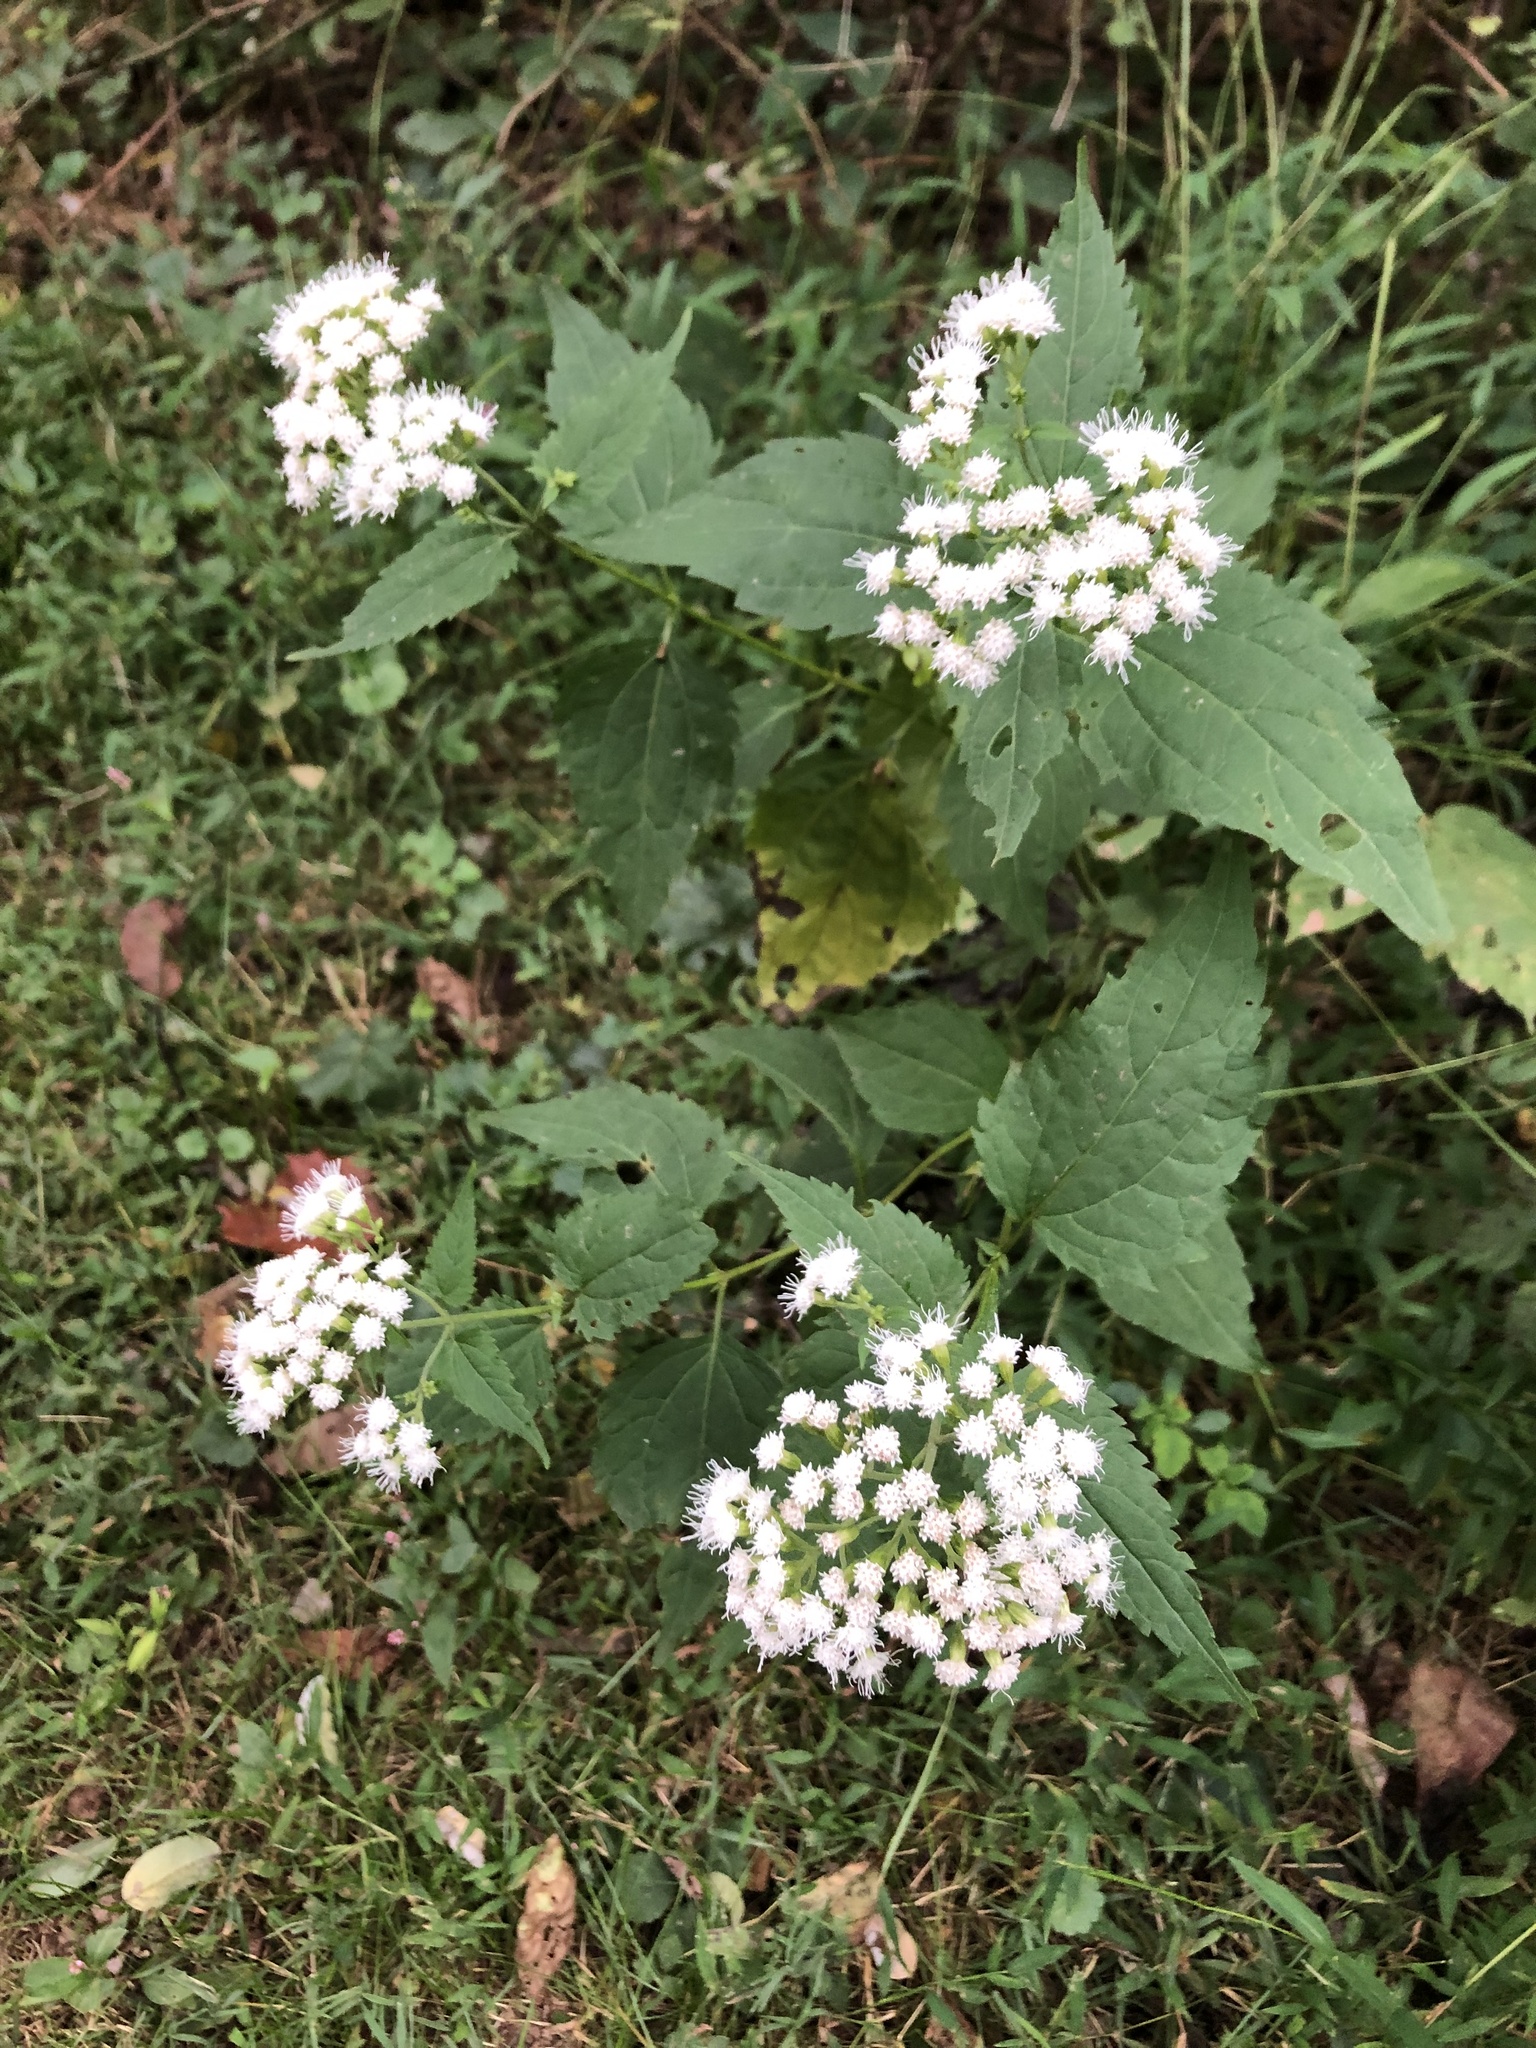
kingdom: Plantae
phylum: Tracheophyta
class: Magnoliopsida
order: Asterales
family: Asteraceae
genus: Ageratina
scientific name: Ageratina altissima
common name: White snakeroot
